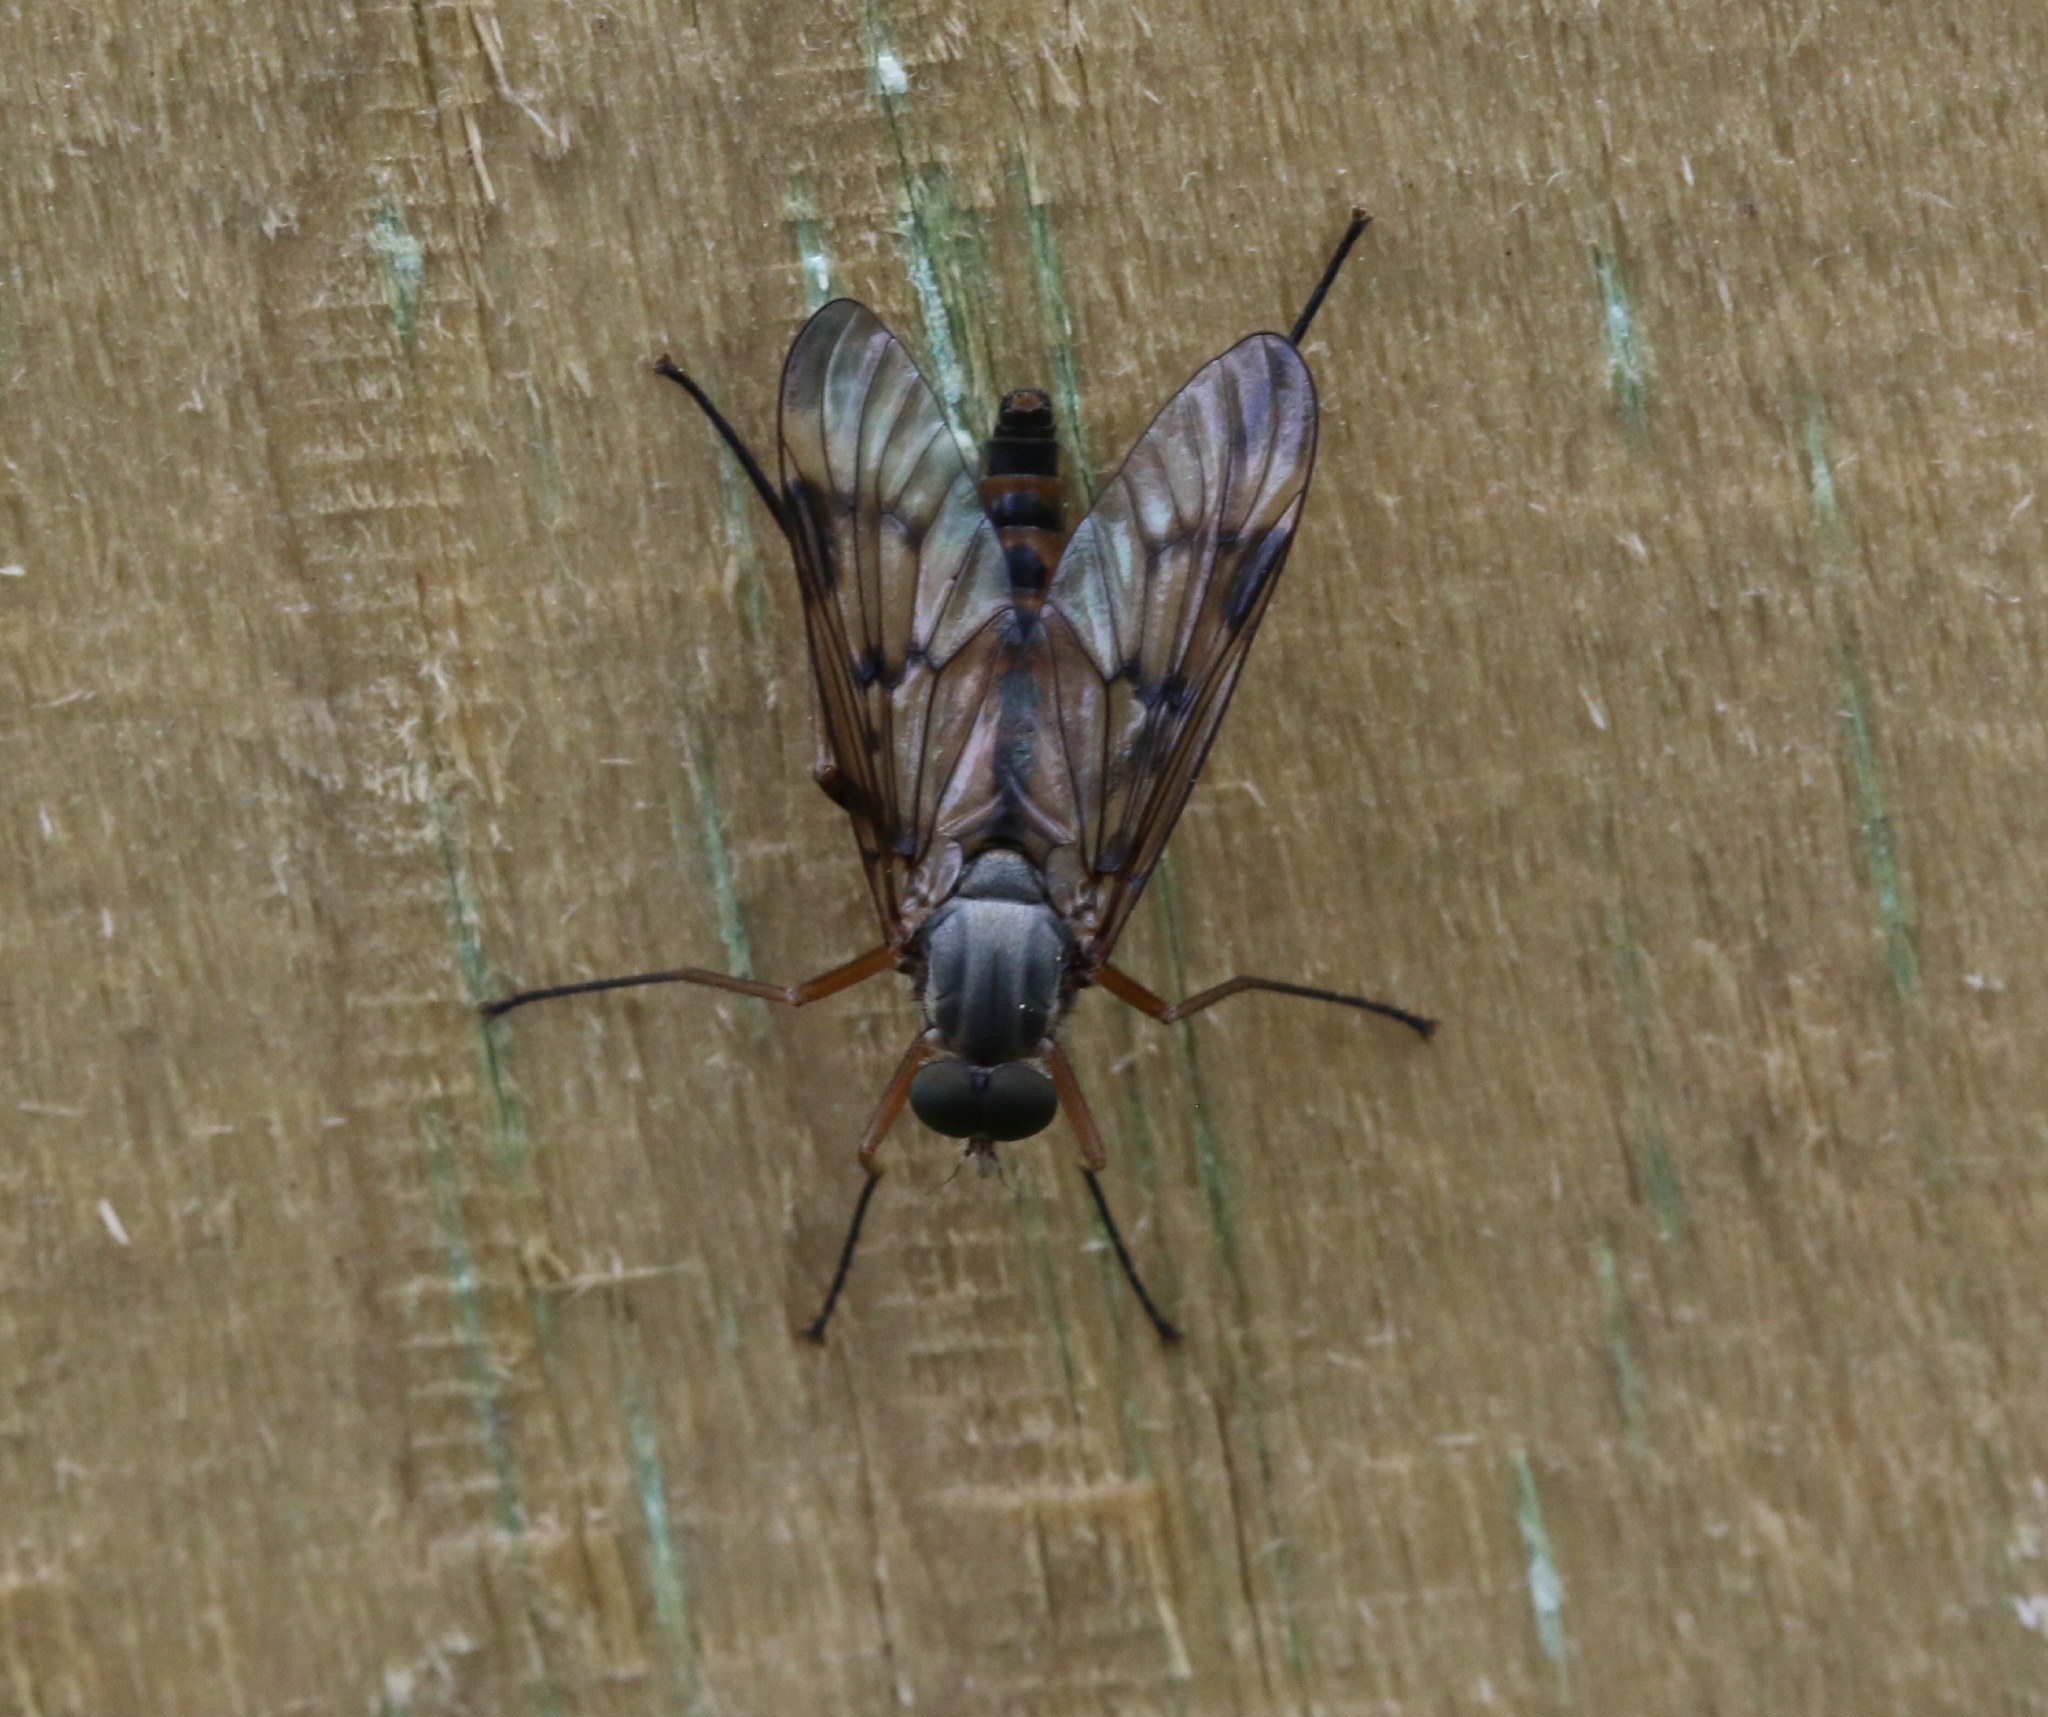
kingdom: Animalia
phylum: Arthropoda
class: Insecta
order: Diptera
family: Rhagionidae
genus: Rhagio
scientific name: Rhagio scolopacea
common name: Downlooker snipefly
